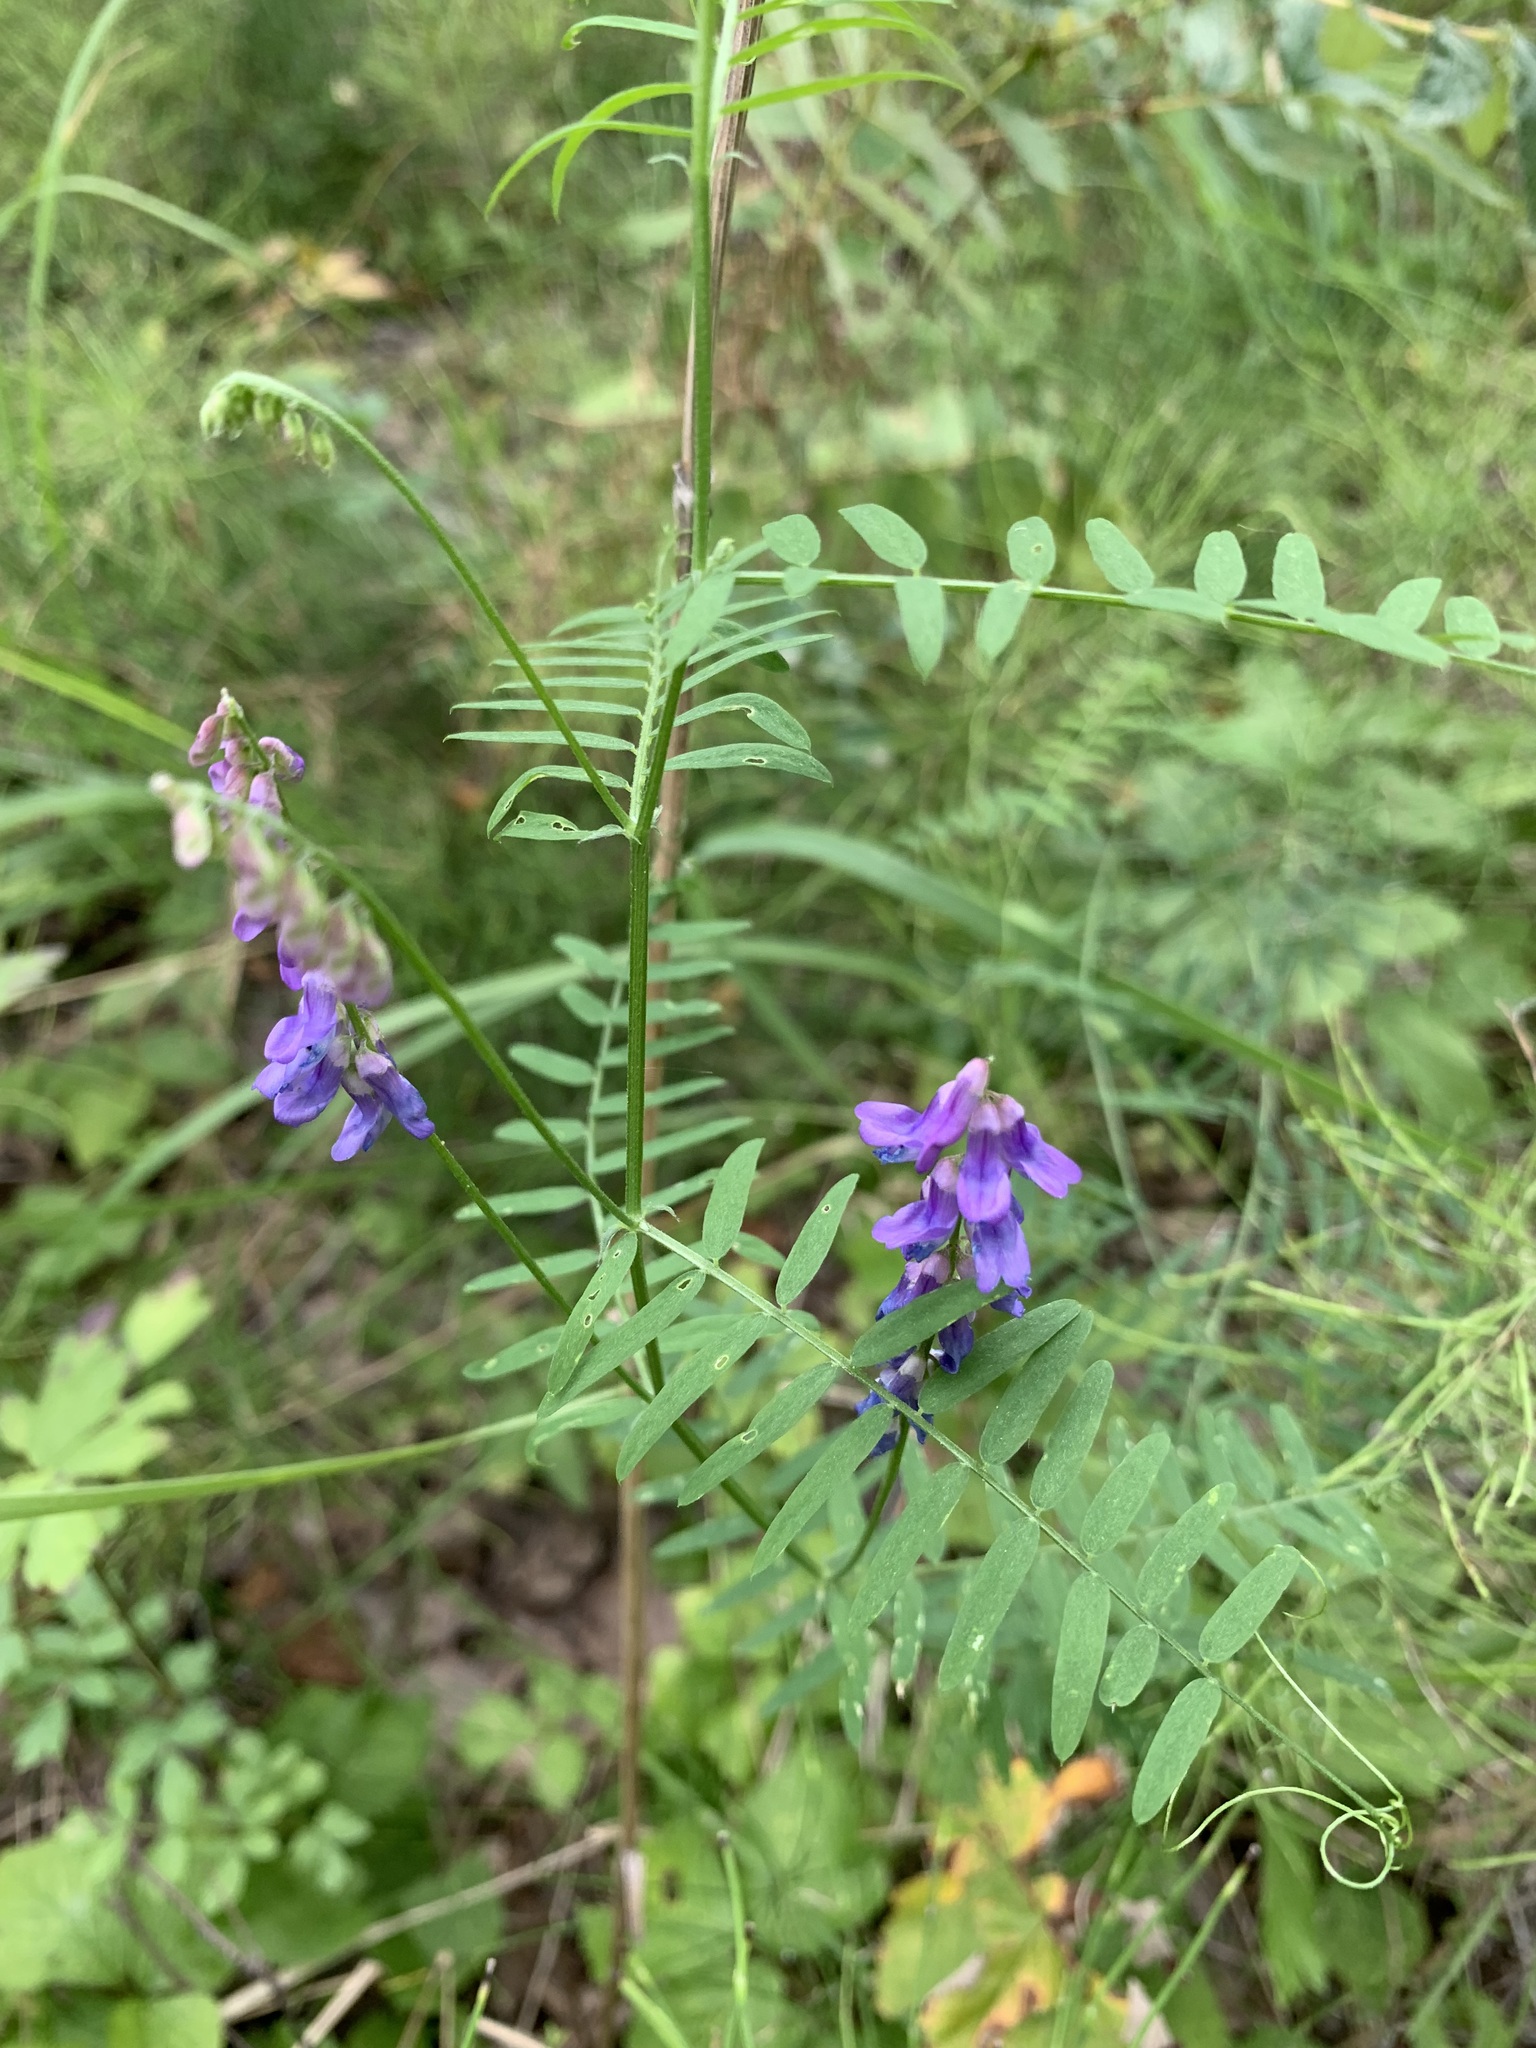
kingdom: Plantae
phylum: Tracheophyta
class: Magnoliopsida
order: Fabales
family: Fabaceae
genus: Vicia
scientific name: Vicia cracca
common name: Bird vetch
